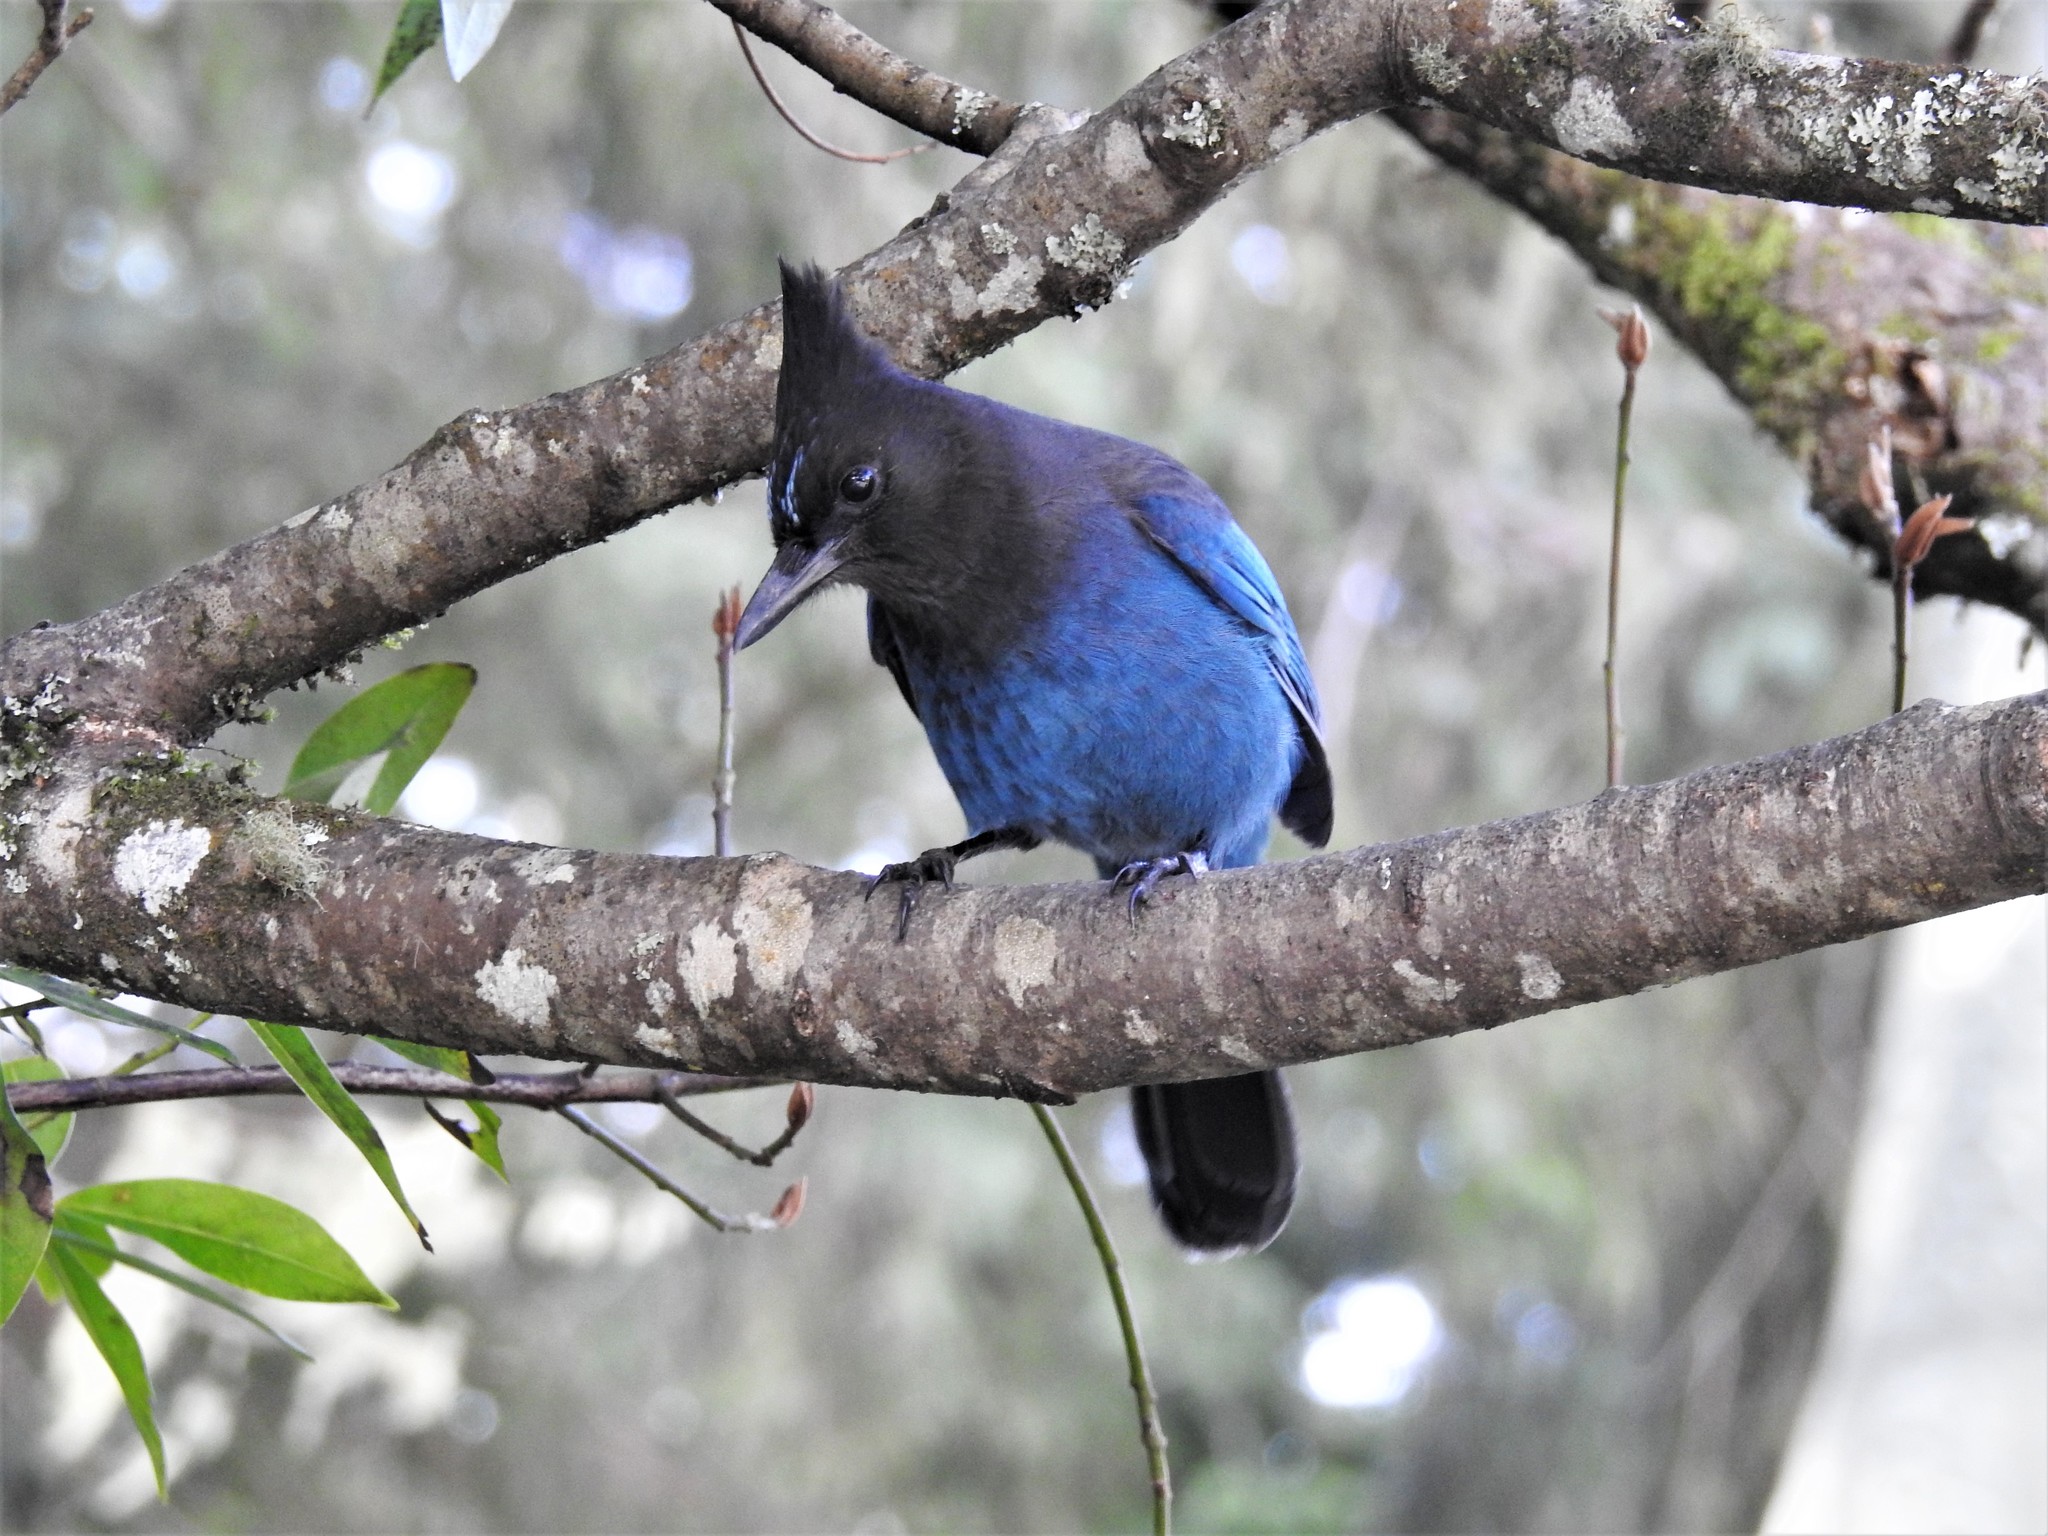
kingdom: Animalia
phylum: Chordata
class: Aves
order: Passeriformes
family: Corvidae
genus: Cyanocitta
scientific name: Cyanocitta stelleri
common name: Steller's jay
